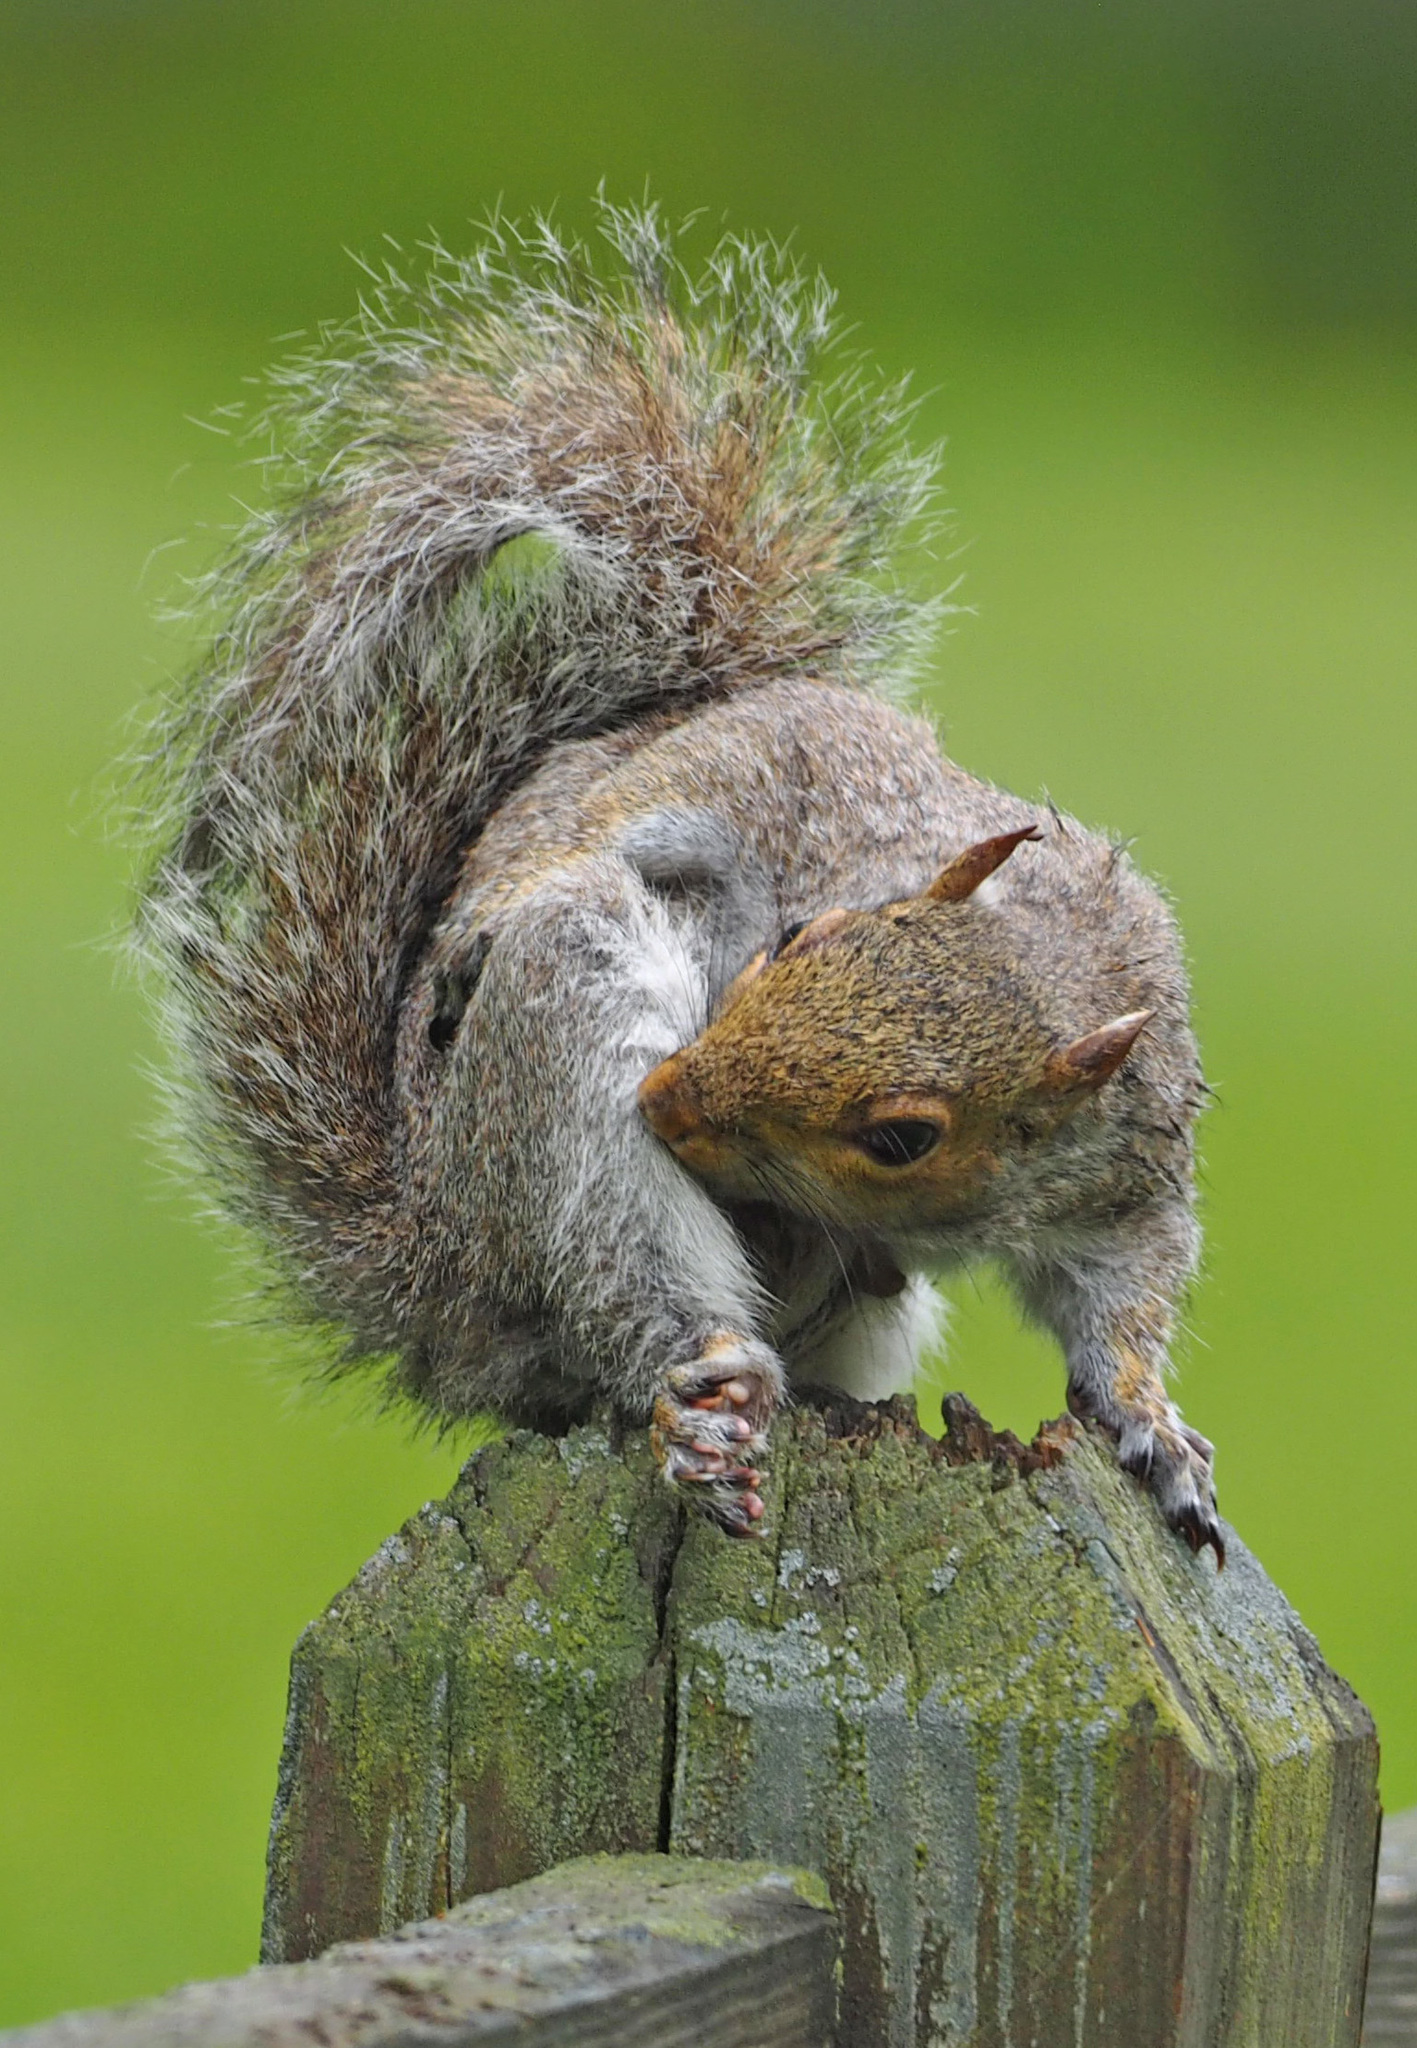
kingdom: Animalia
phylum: Chordata
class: Mammalia
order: Rodentia
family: Sciuridae
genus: Sciurus
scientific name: Sciurus carolinensis
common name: Eastern gray squirrel
